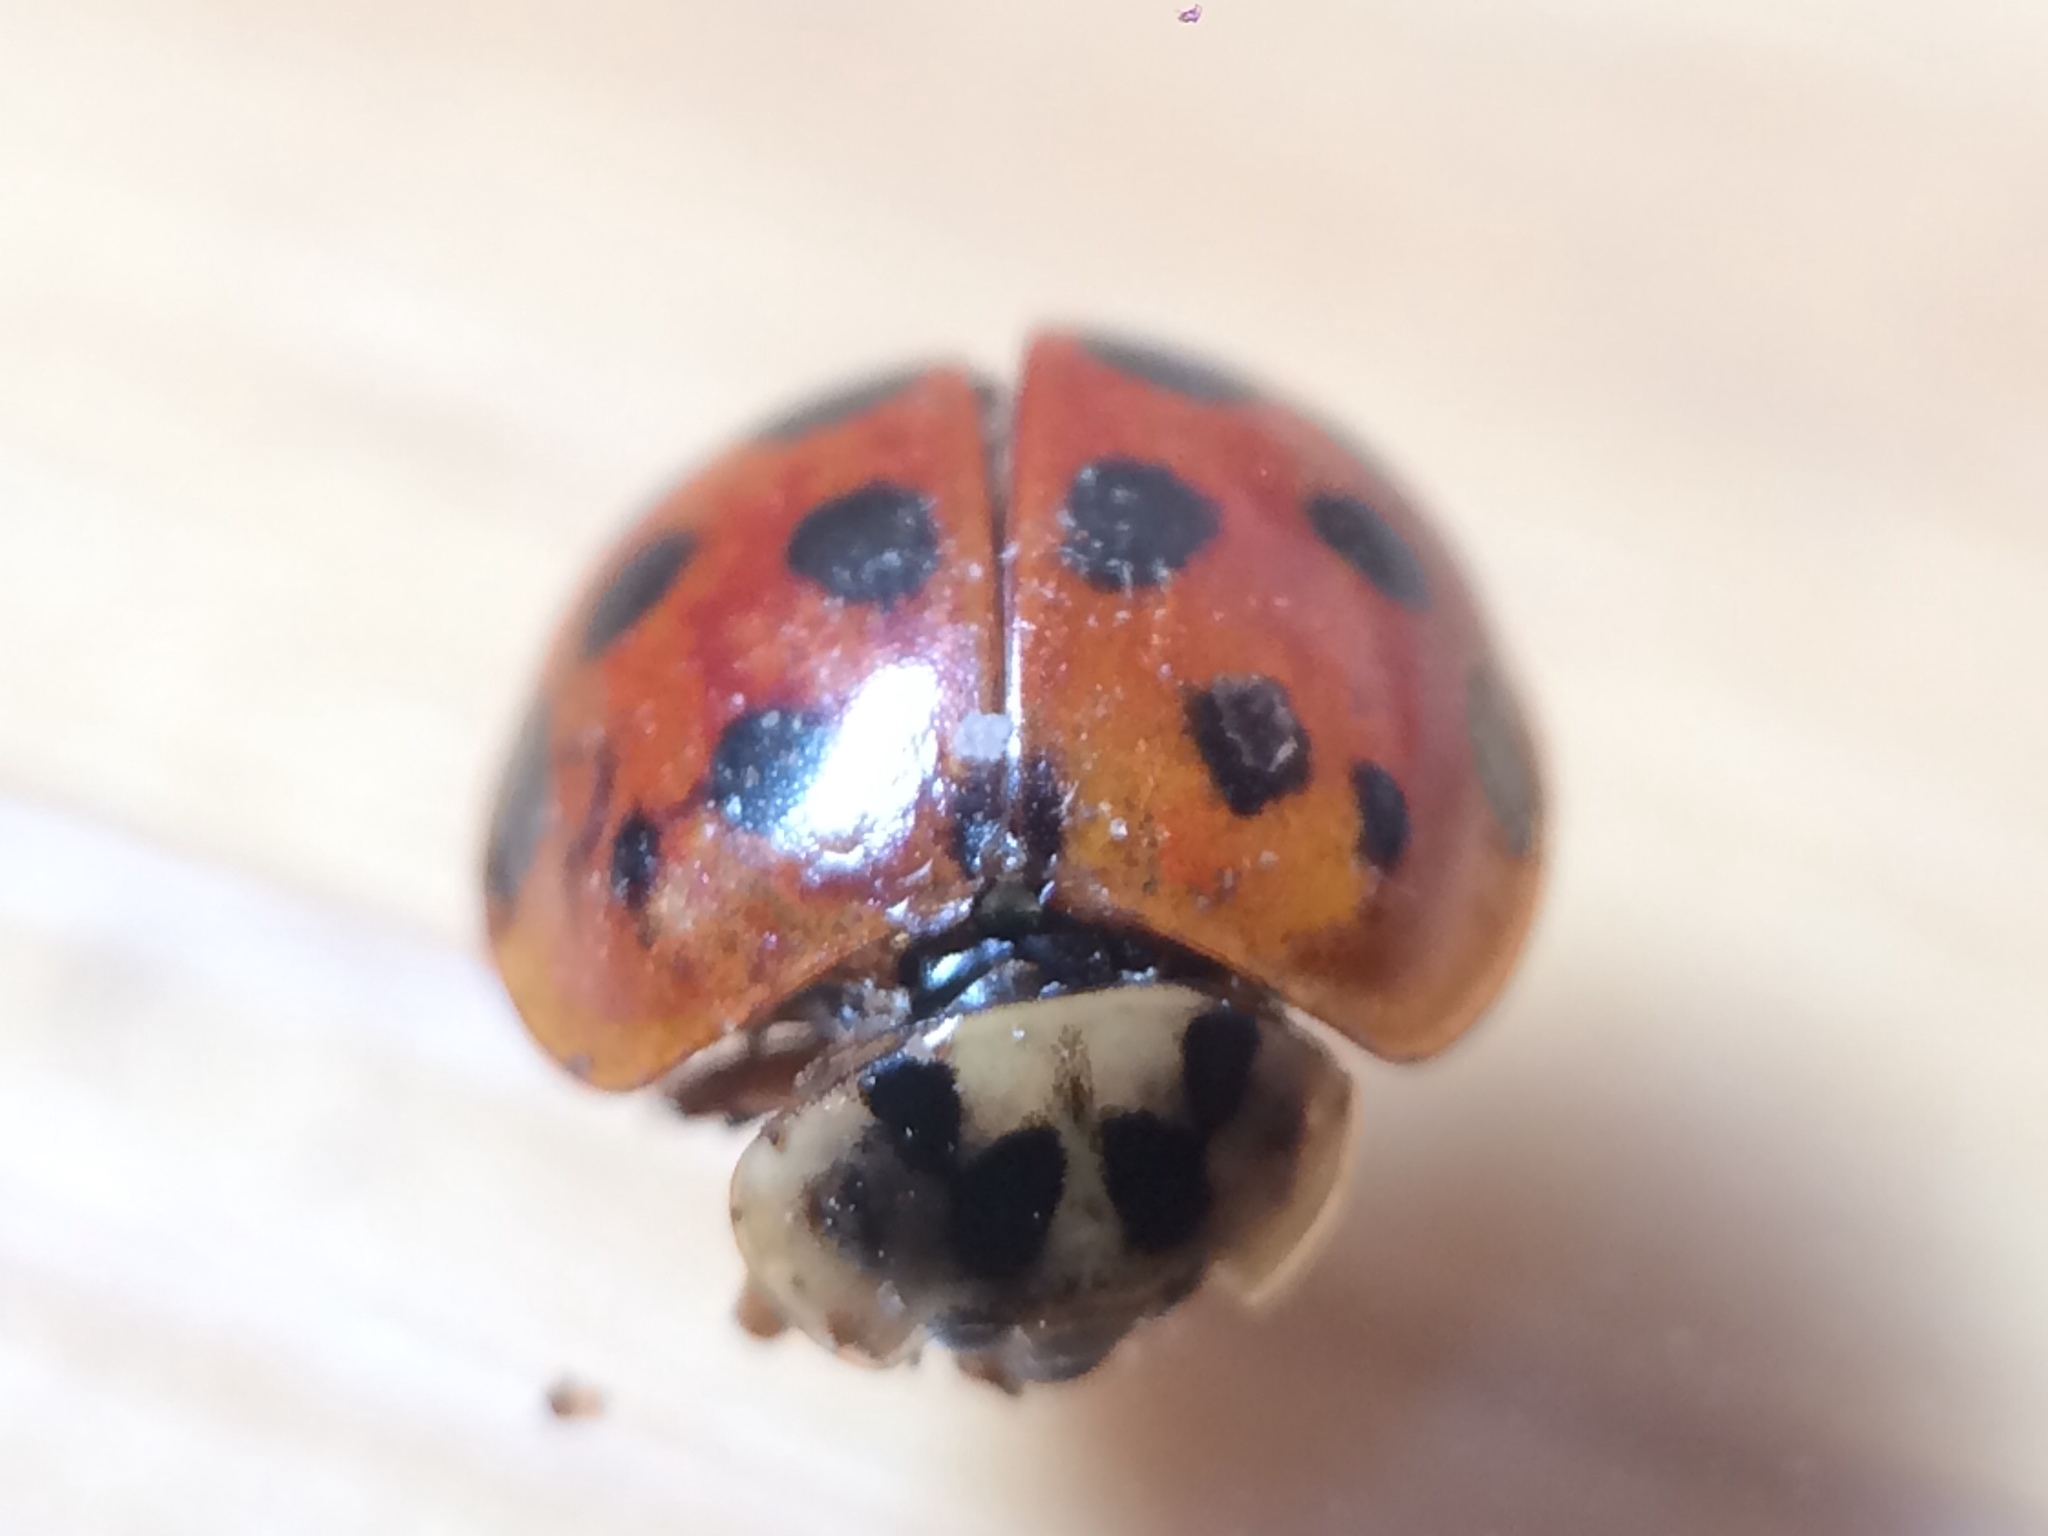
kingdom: Animalia
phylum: Arthropoda
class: Insecta
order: Coleoptera
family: Coccinellidae
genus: Harmonia
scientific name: Harmonia axyridis
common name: Harlequin ladybird
